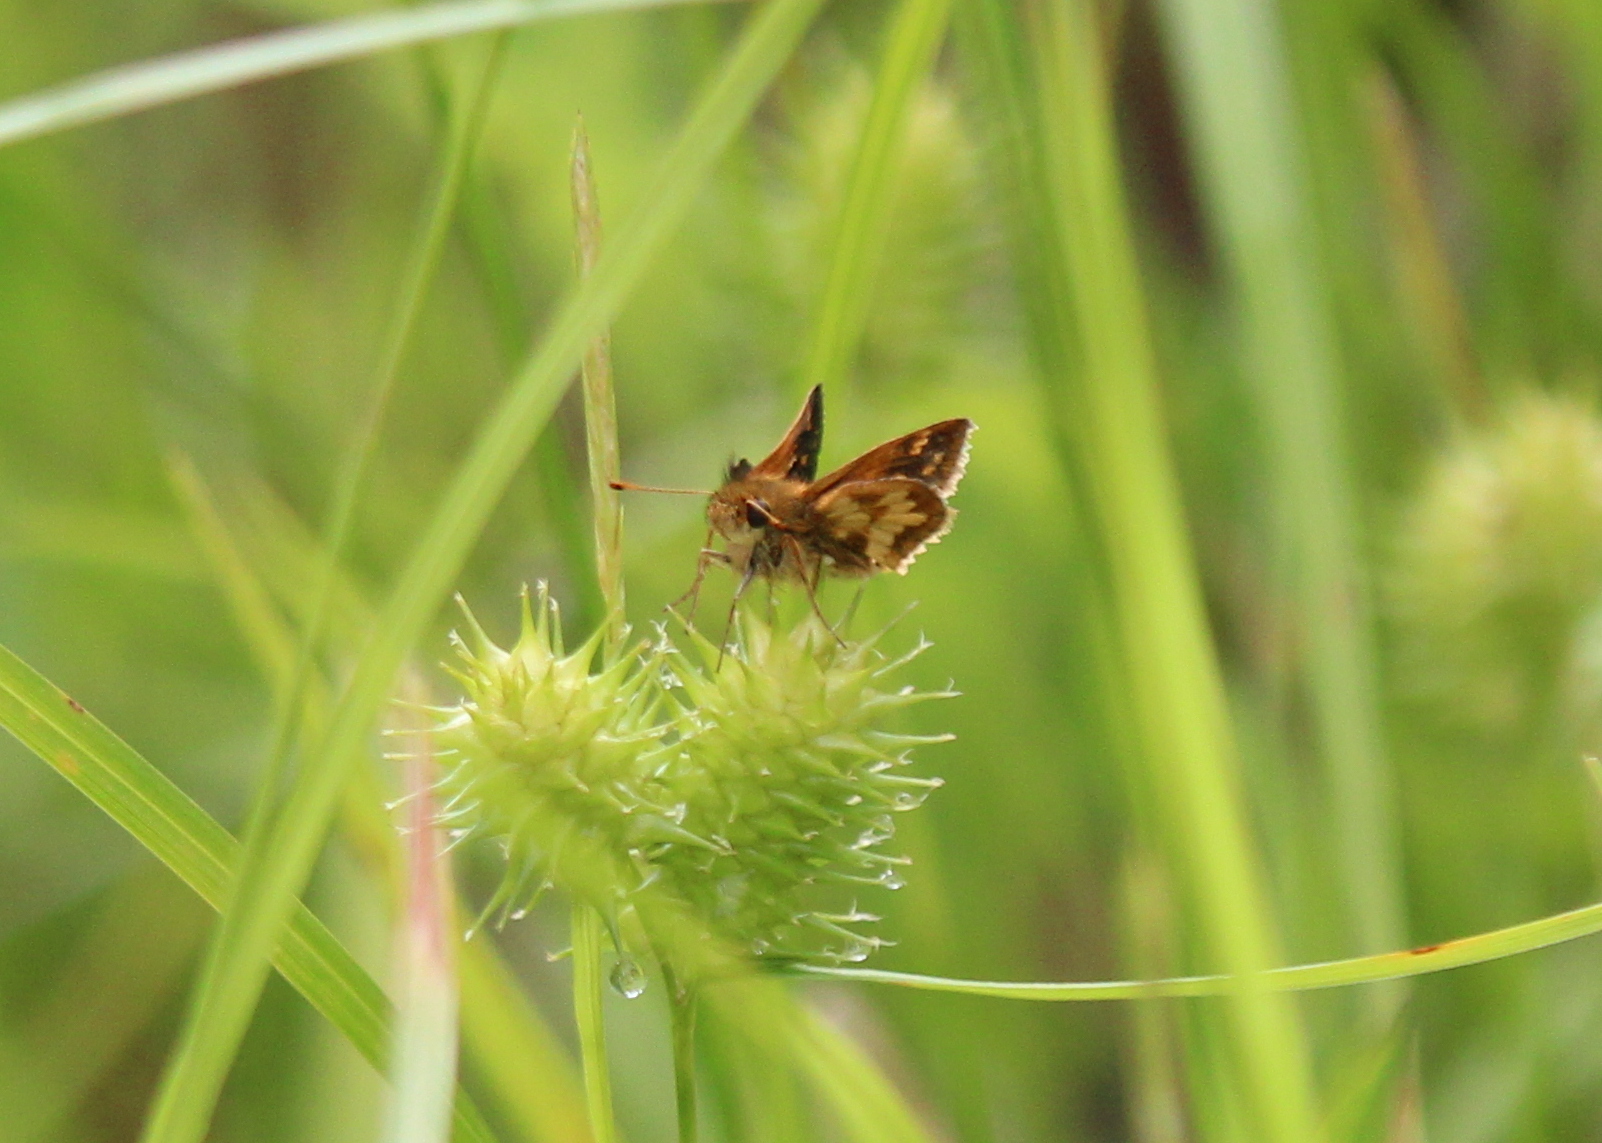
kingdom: Animalia
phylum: Arthropoda
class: Insecta
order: Lepidoptera
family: Hesperiidae
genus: Polites
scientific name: Polites coras
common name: Peck's skipper
